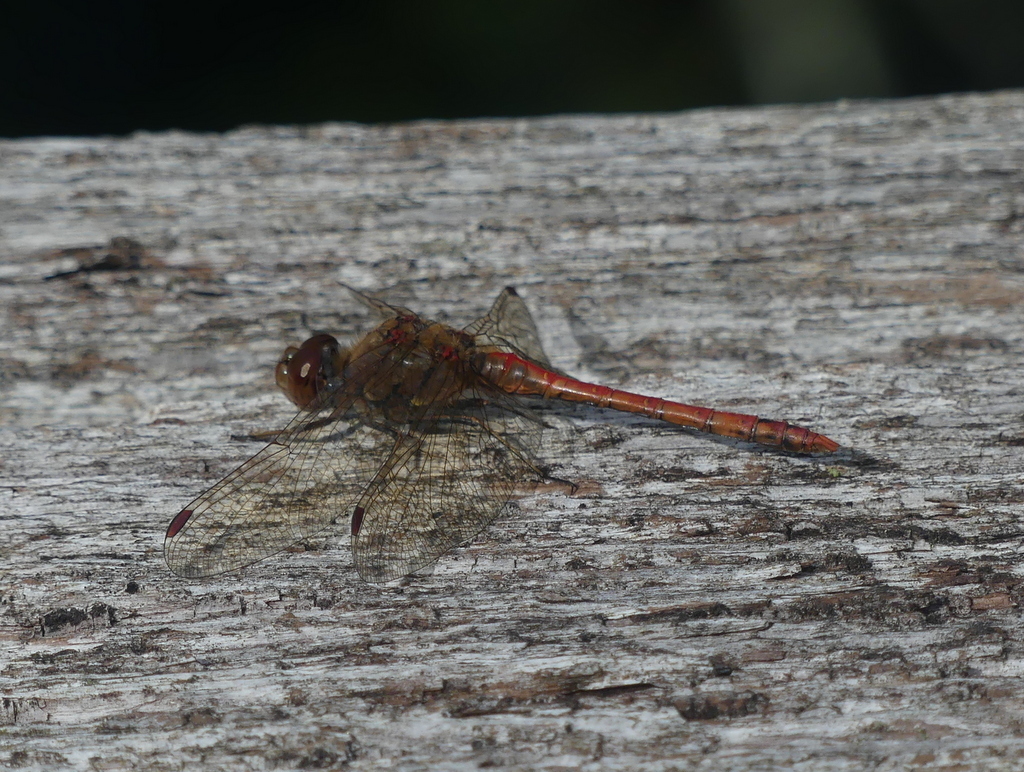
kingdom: Animalia
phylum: Arthropoda
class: Insecta
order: Odonata
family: Libellulidae
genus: Sympetrum
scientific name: Sympetrum striolatum
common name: Common darter
